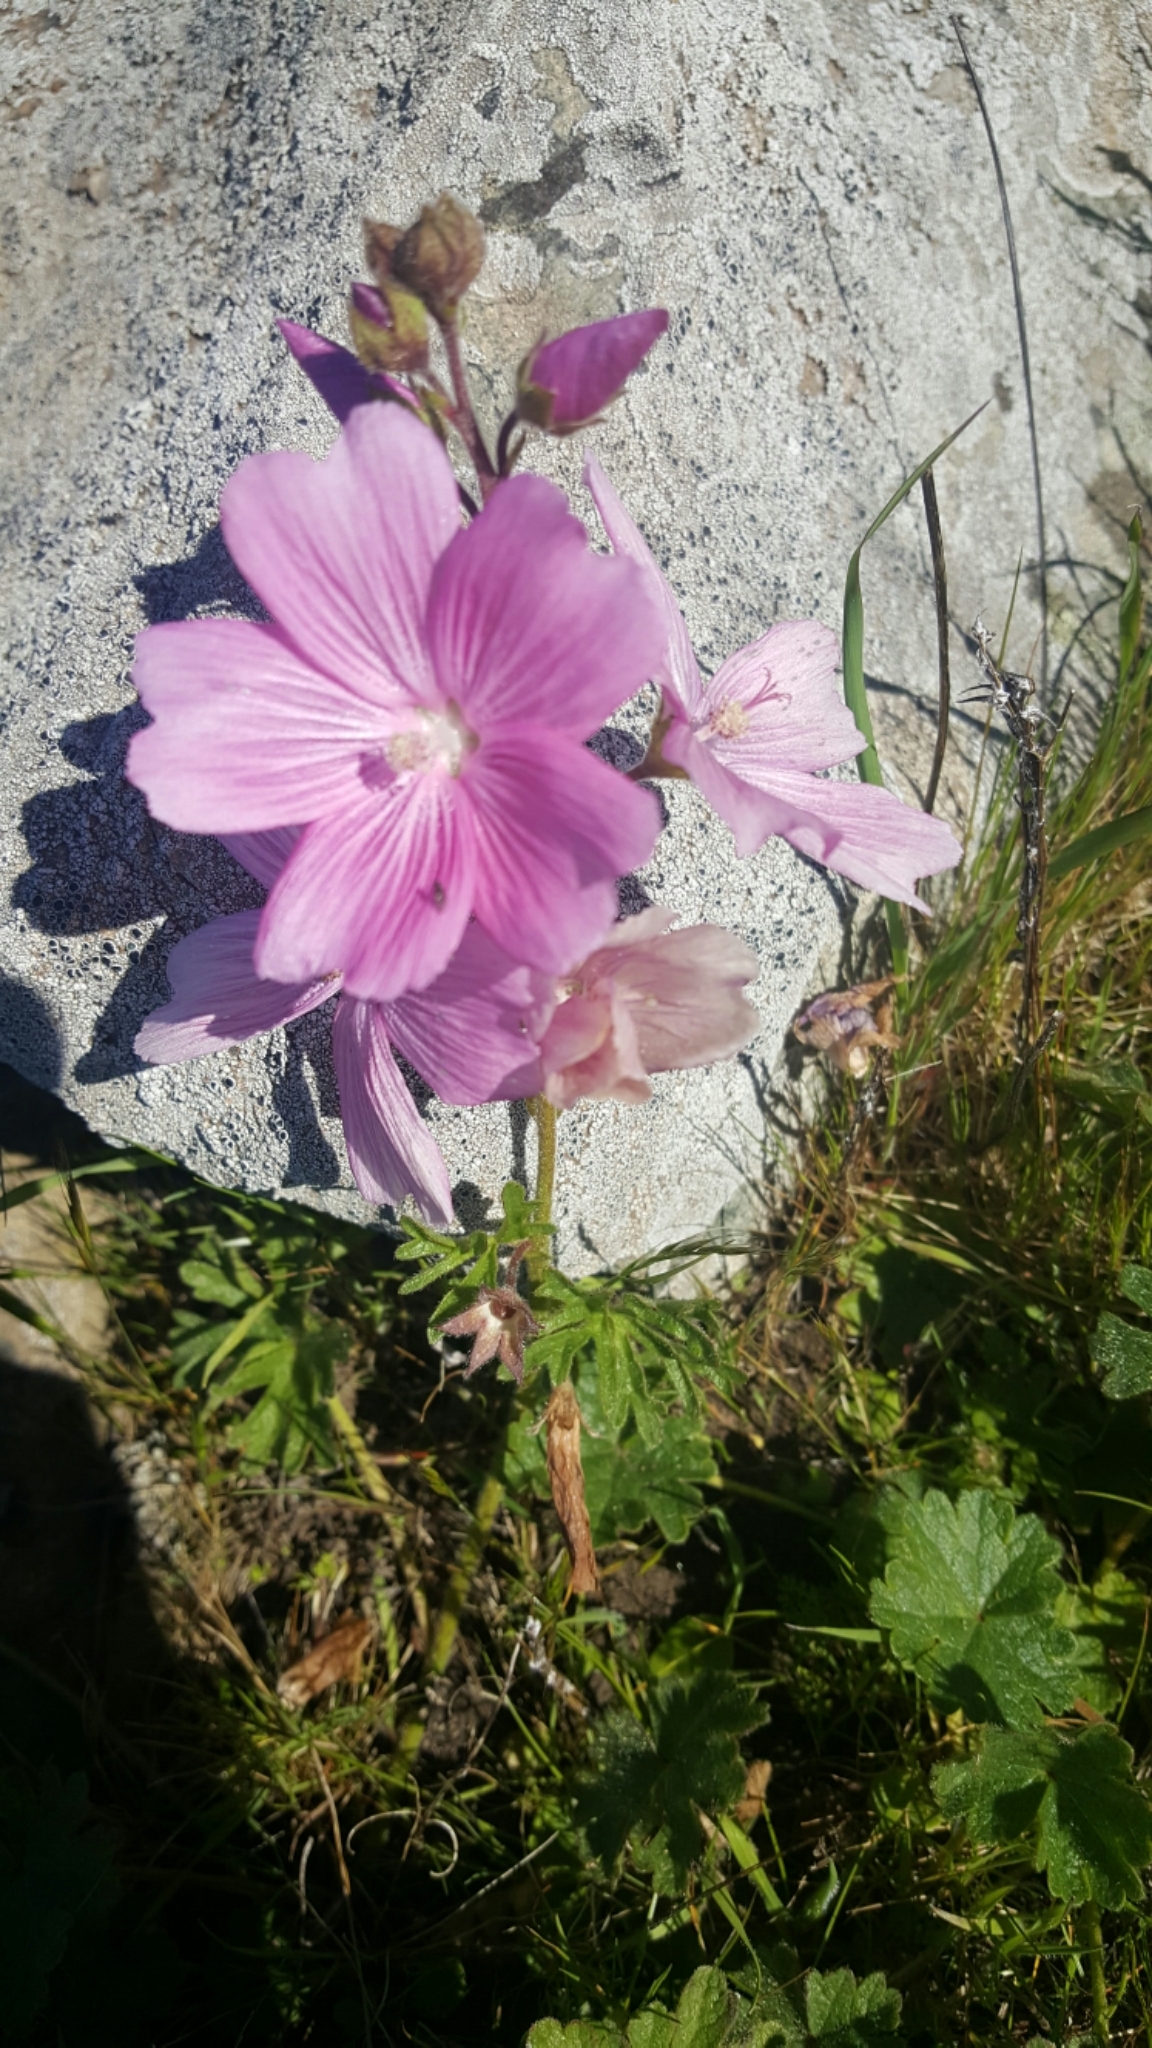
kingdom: Plantae
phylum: Tracheophyta
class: Magnoliopsida
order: Malvales
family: Malvaceae
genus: Sidalcea
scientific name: Sidalcea malviflora
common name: Greek mallow
